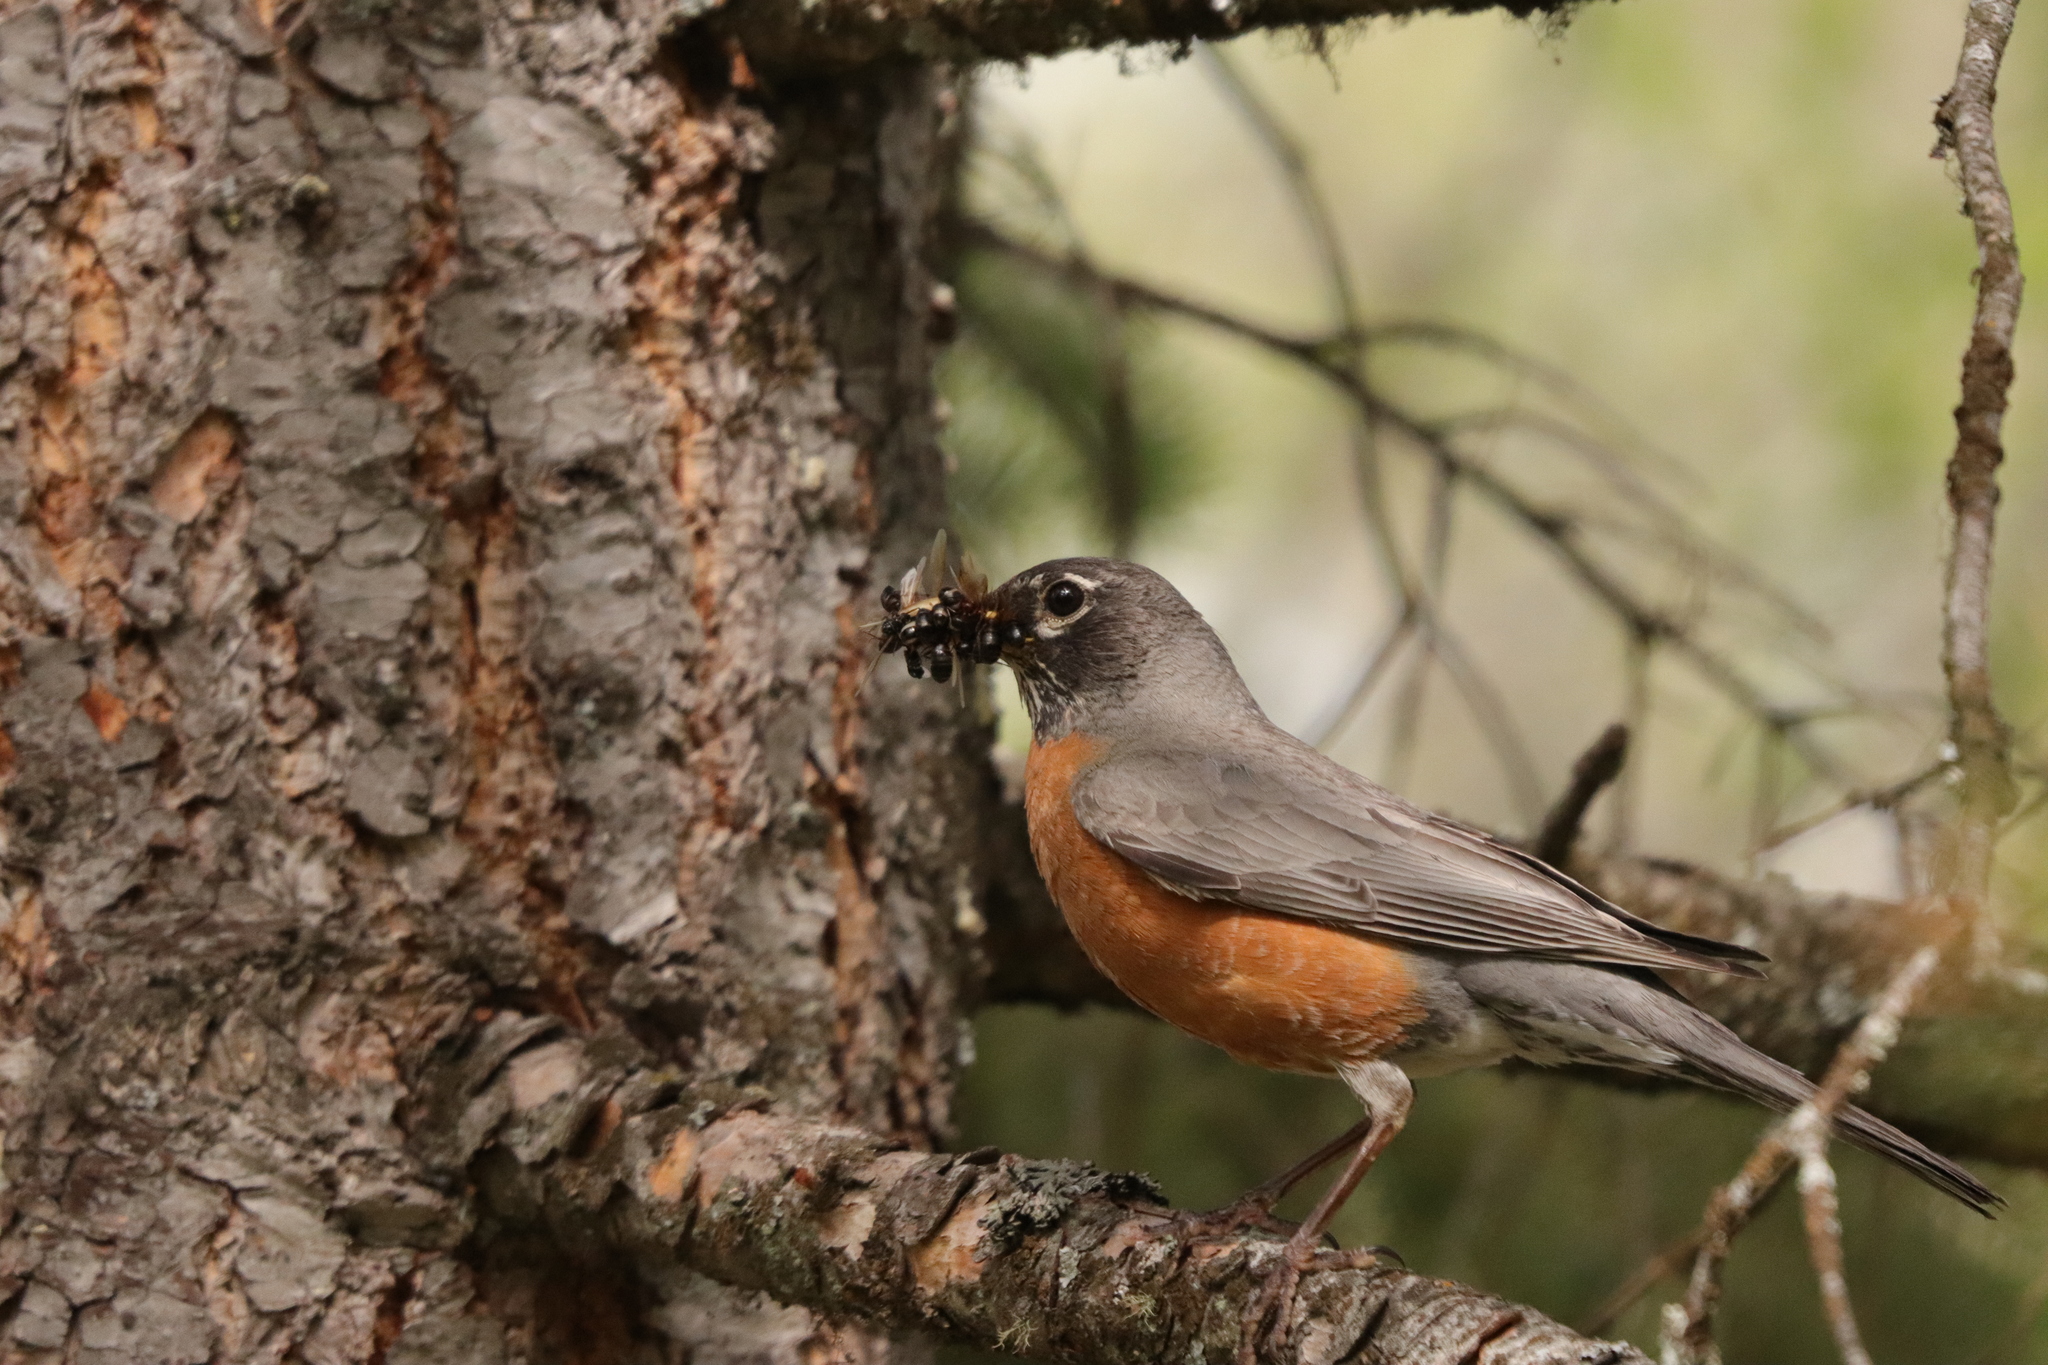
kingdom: Animalia
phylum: Chordata
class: Aves
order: Passeriformes
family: Turdidae
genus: Turdus
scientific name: Turdus migratorius
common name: American robin
